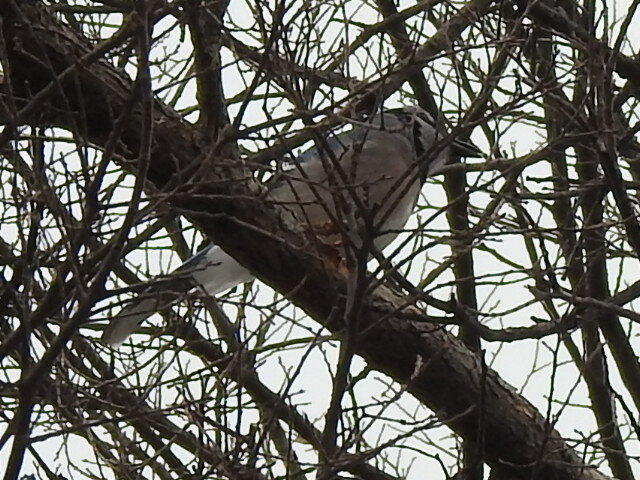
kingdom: Animalia
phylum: Chordata
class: Aves
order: Passeriformes
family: Corvidae
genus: Cyanocitta
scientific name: Cyanocitta cristata
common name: Blue jay
